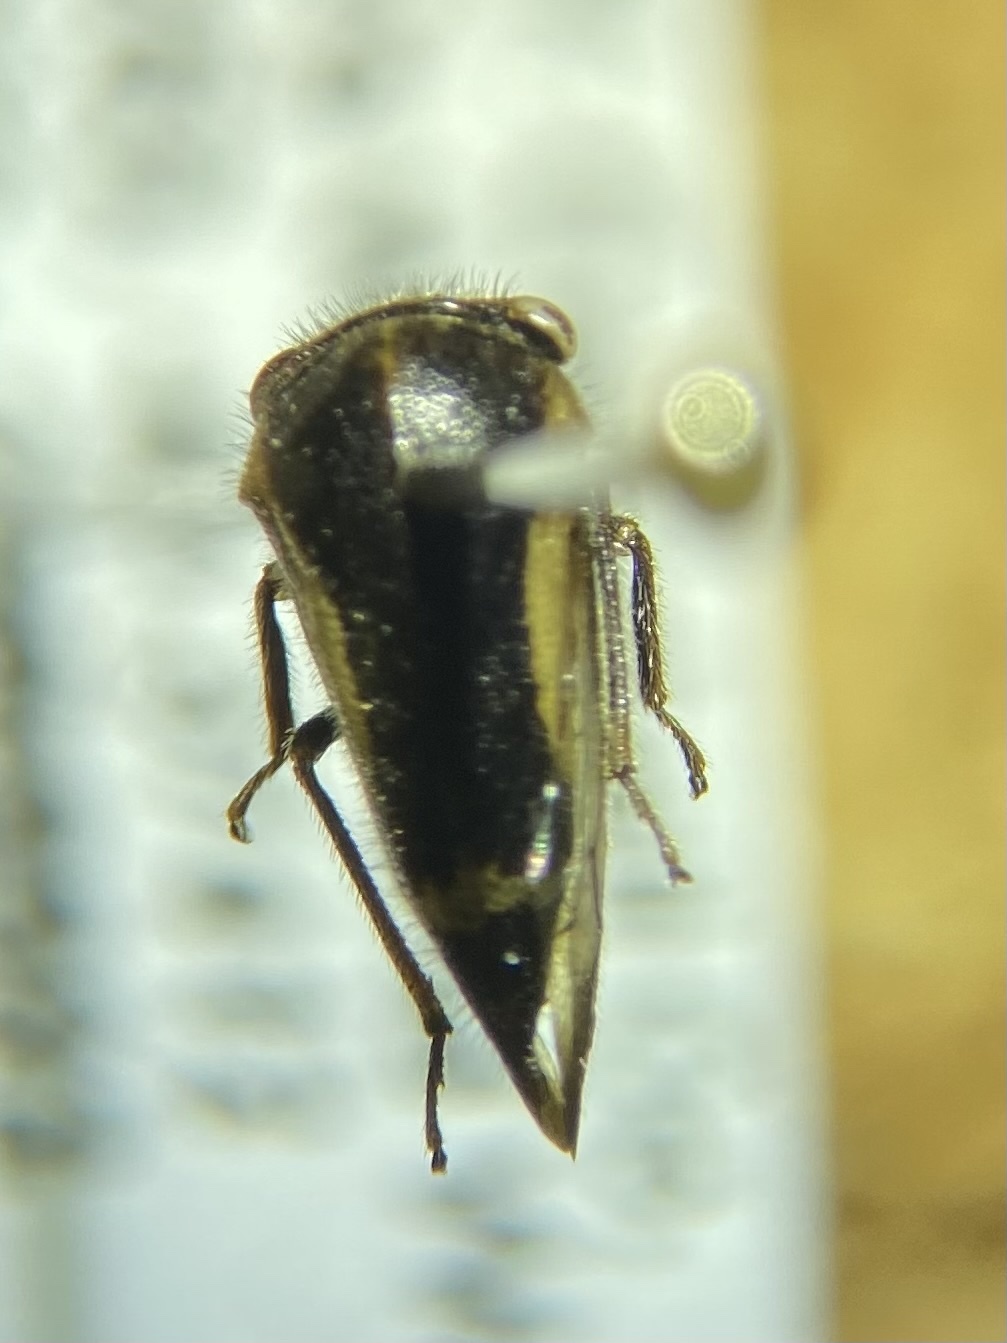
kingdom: Animalia
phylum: Arthropoda
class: Insecta
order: Hemiptera
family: Membracidae
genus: Ophiderma
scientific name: Ophiderma flavicephala
